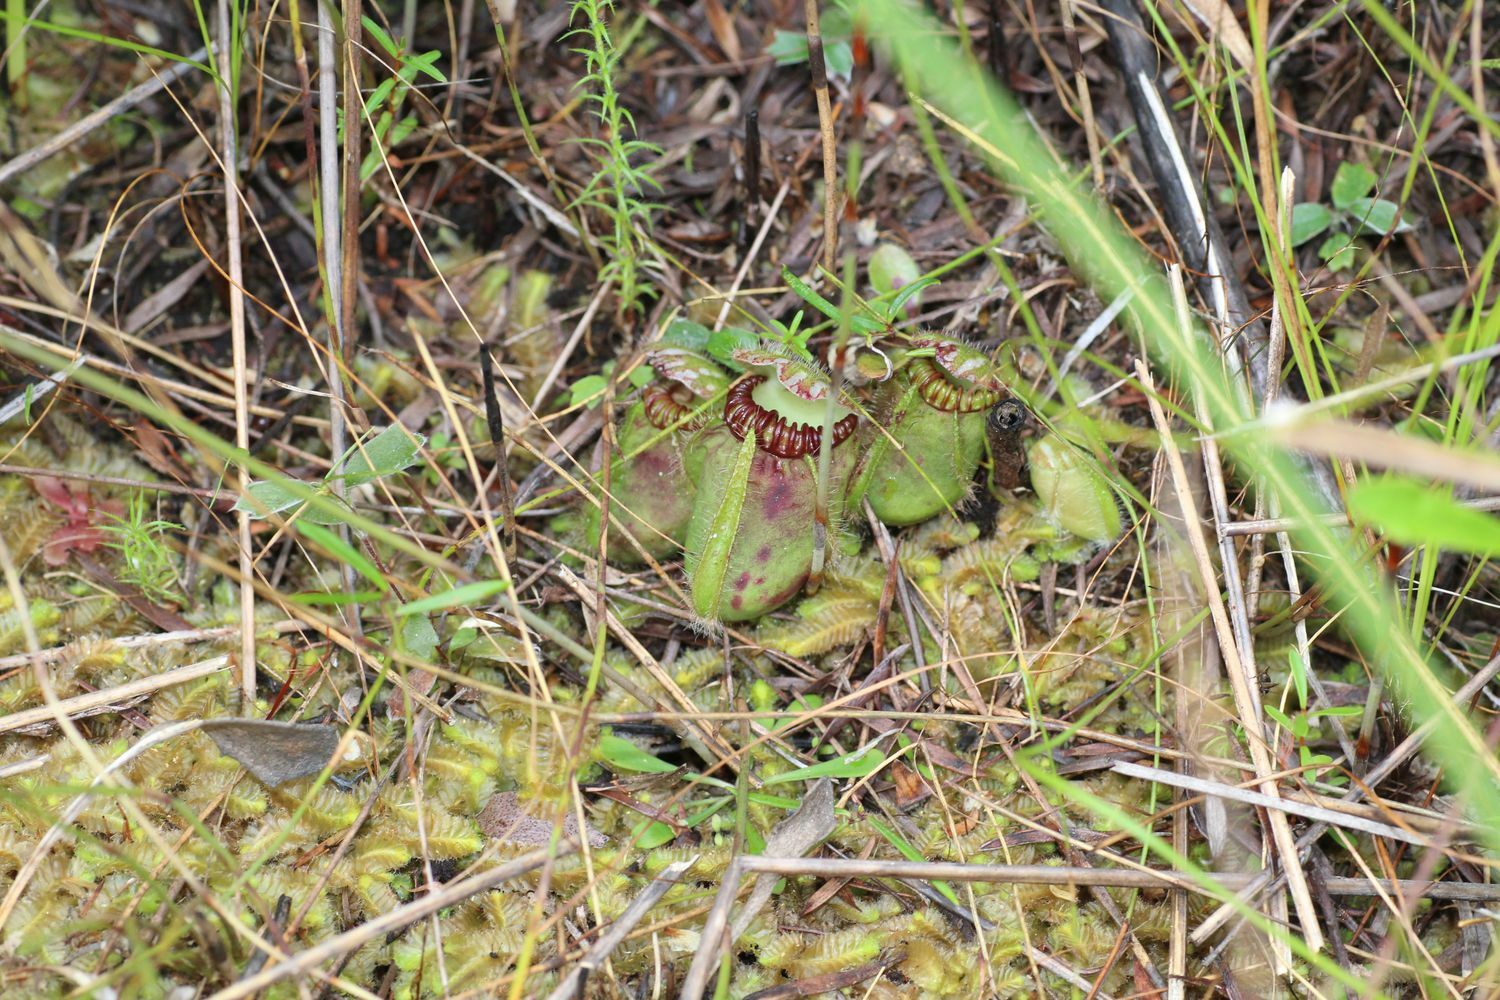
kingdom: Plantae
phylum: Tracheophyta
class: Magnoliopsida
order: Oxalidales
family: Cephalotaceae
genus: Cephalotus
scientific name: Cephalotus follicularis
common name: Australian pitcher plant
